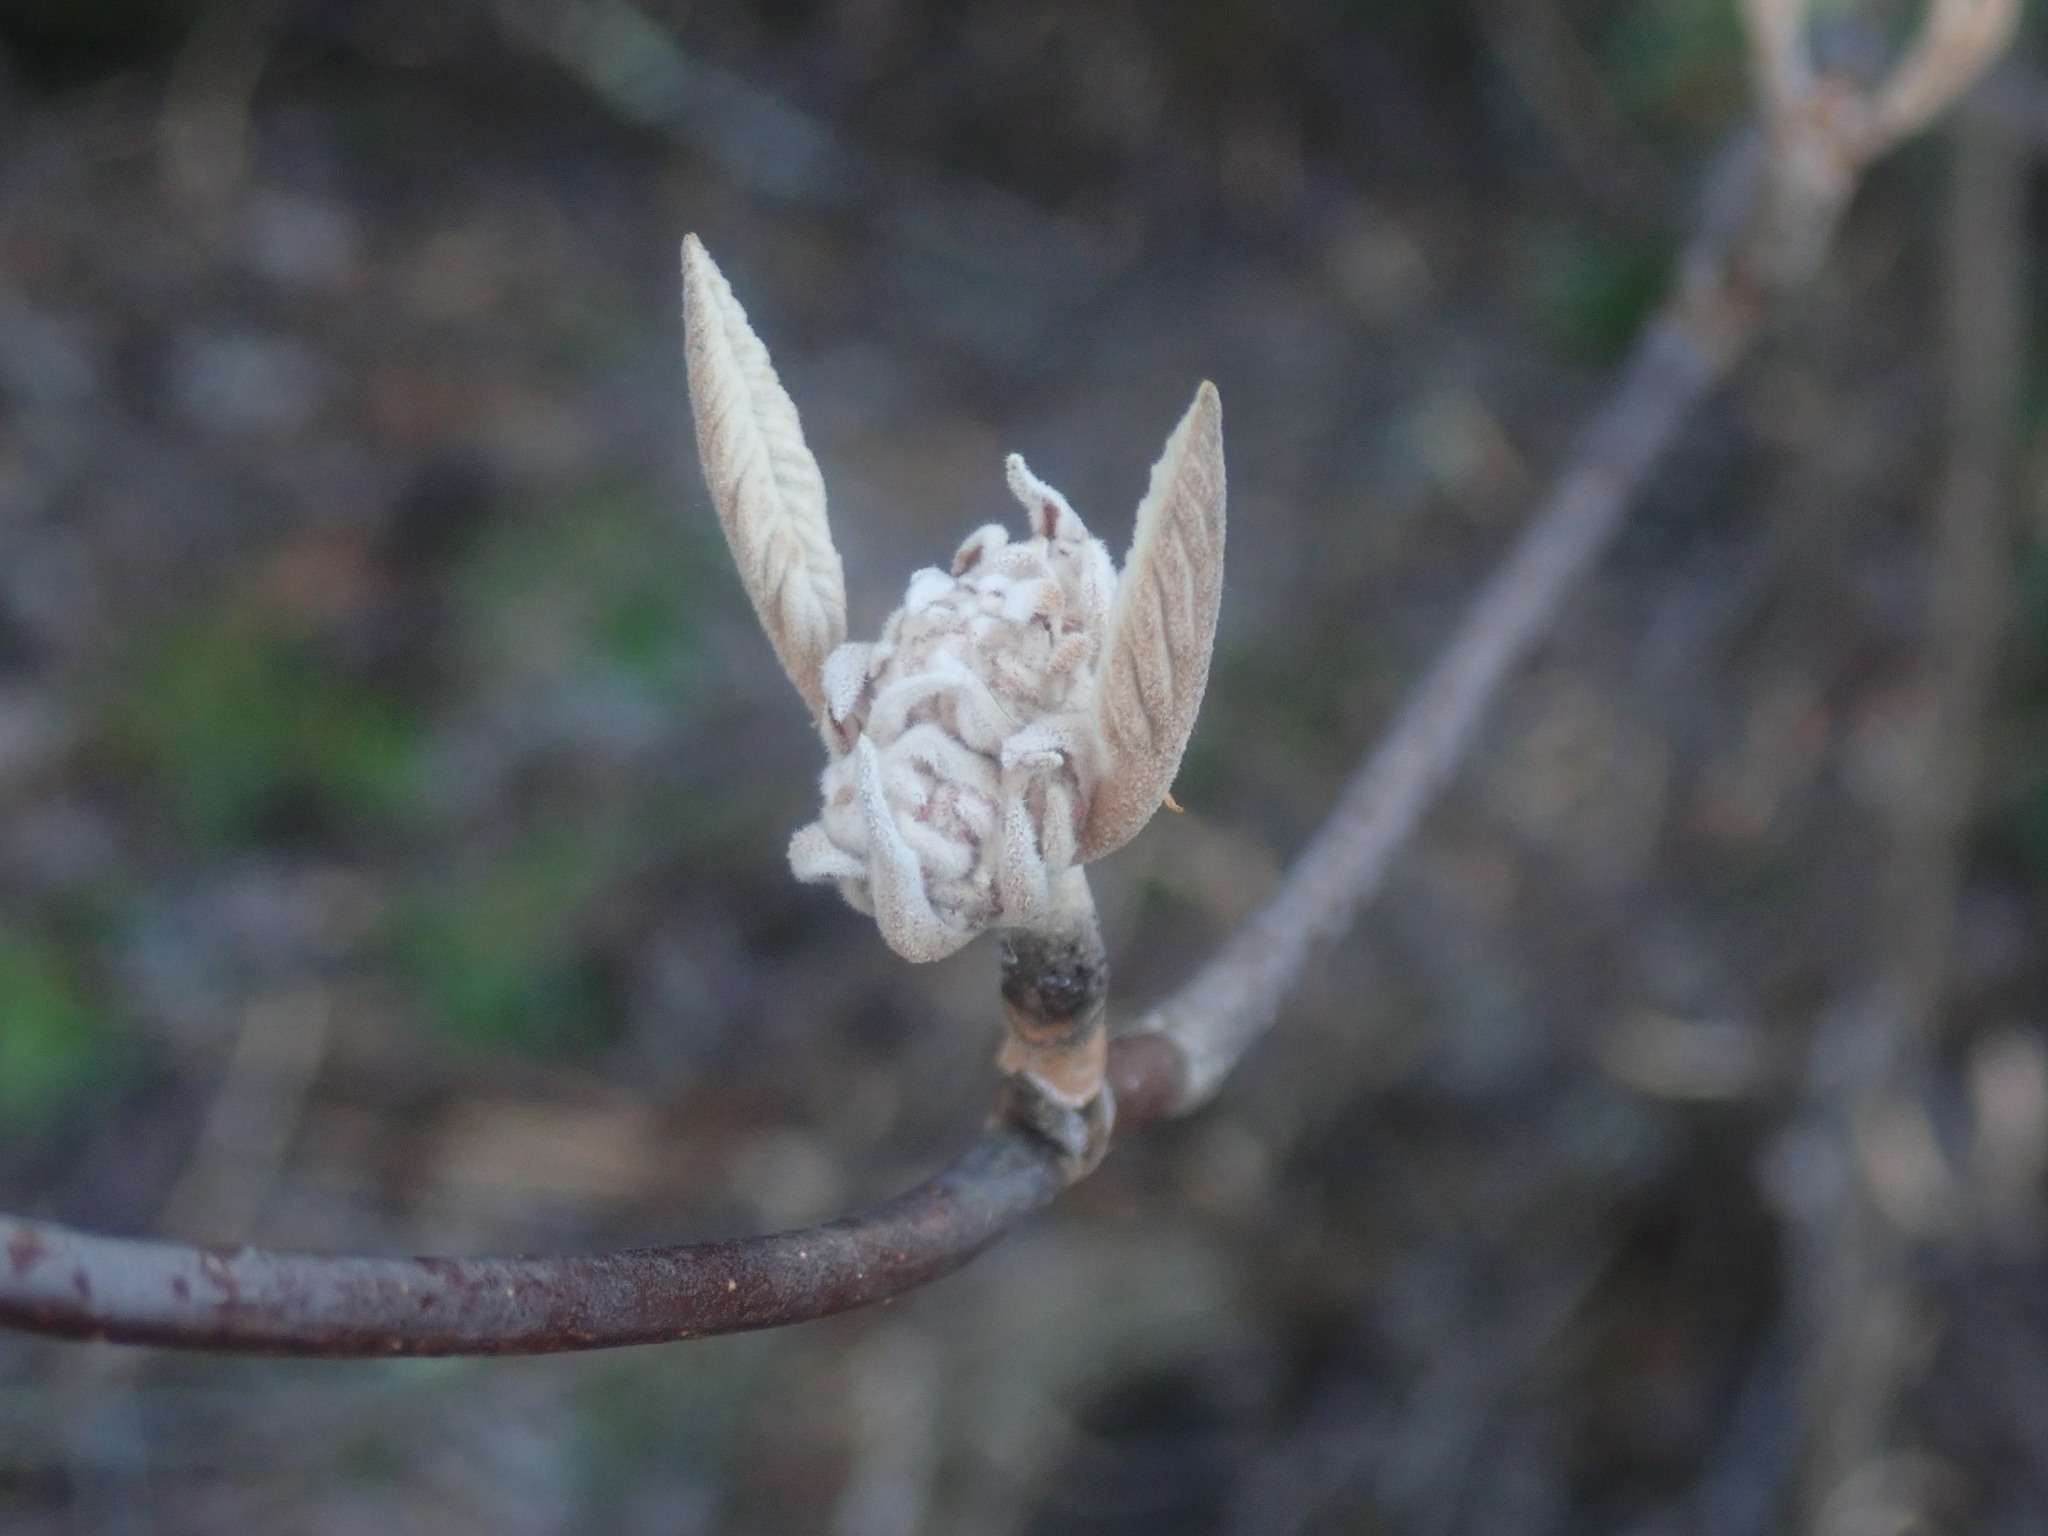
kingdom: Plantae
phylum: Tracheophyta
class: Magnoliopsida
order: Dipsacales
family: Viburnaceae
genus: Viburnum
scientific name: Viburnum lantanoides
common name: Hobblebush
